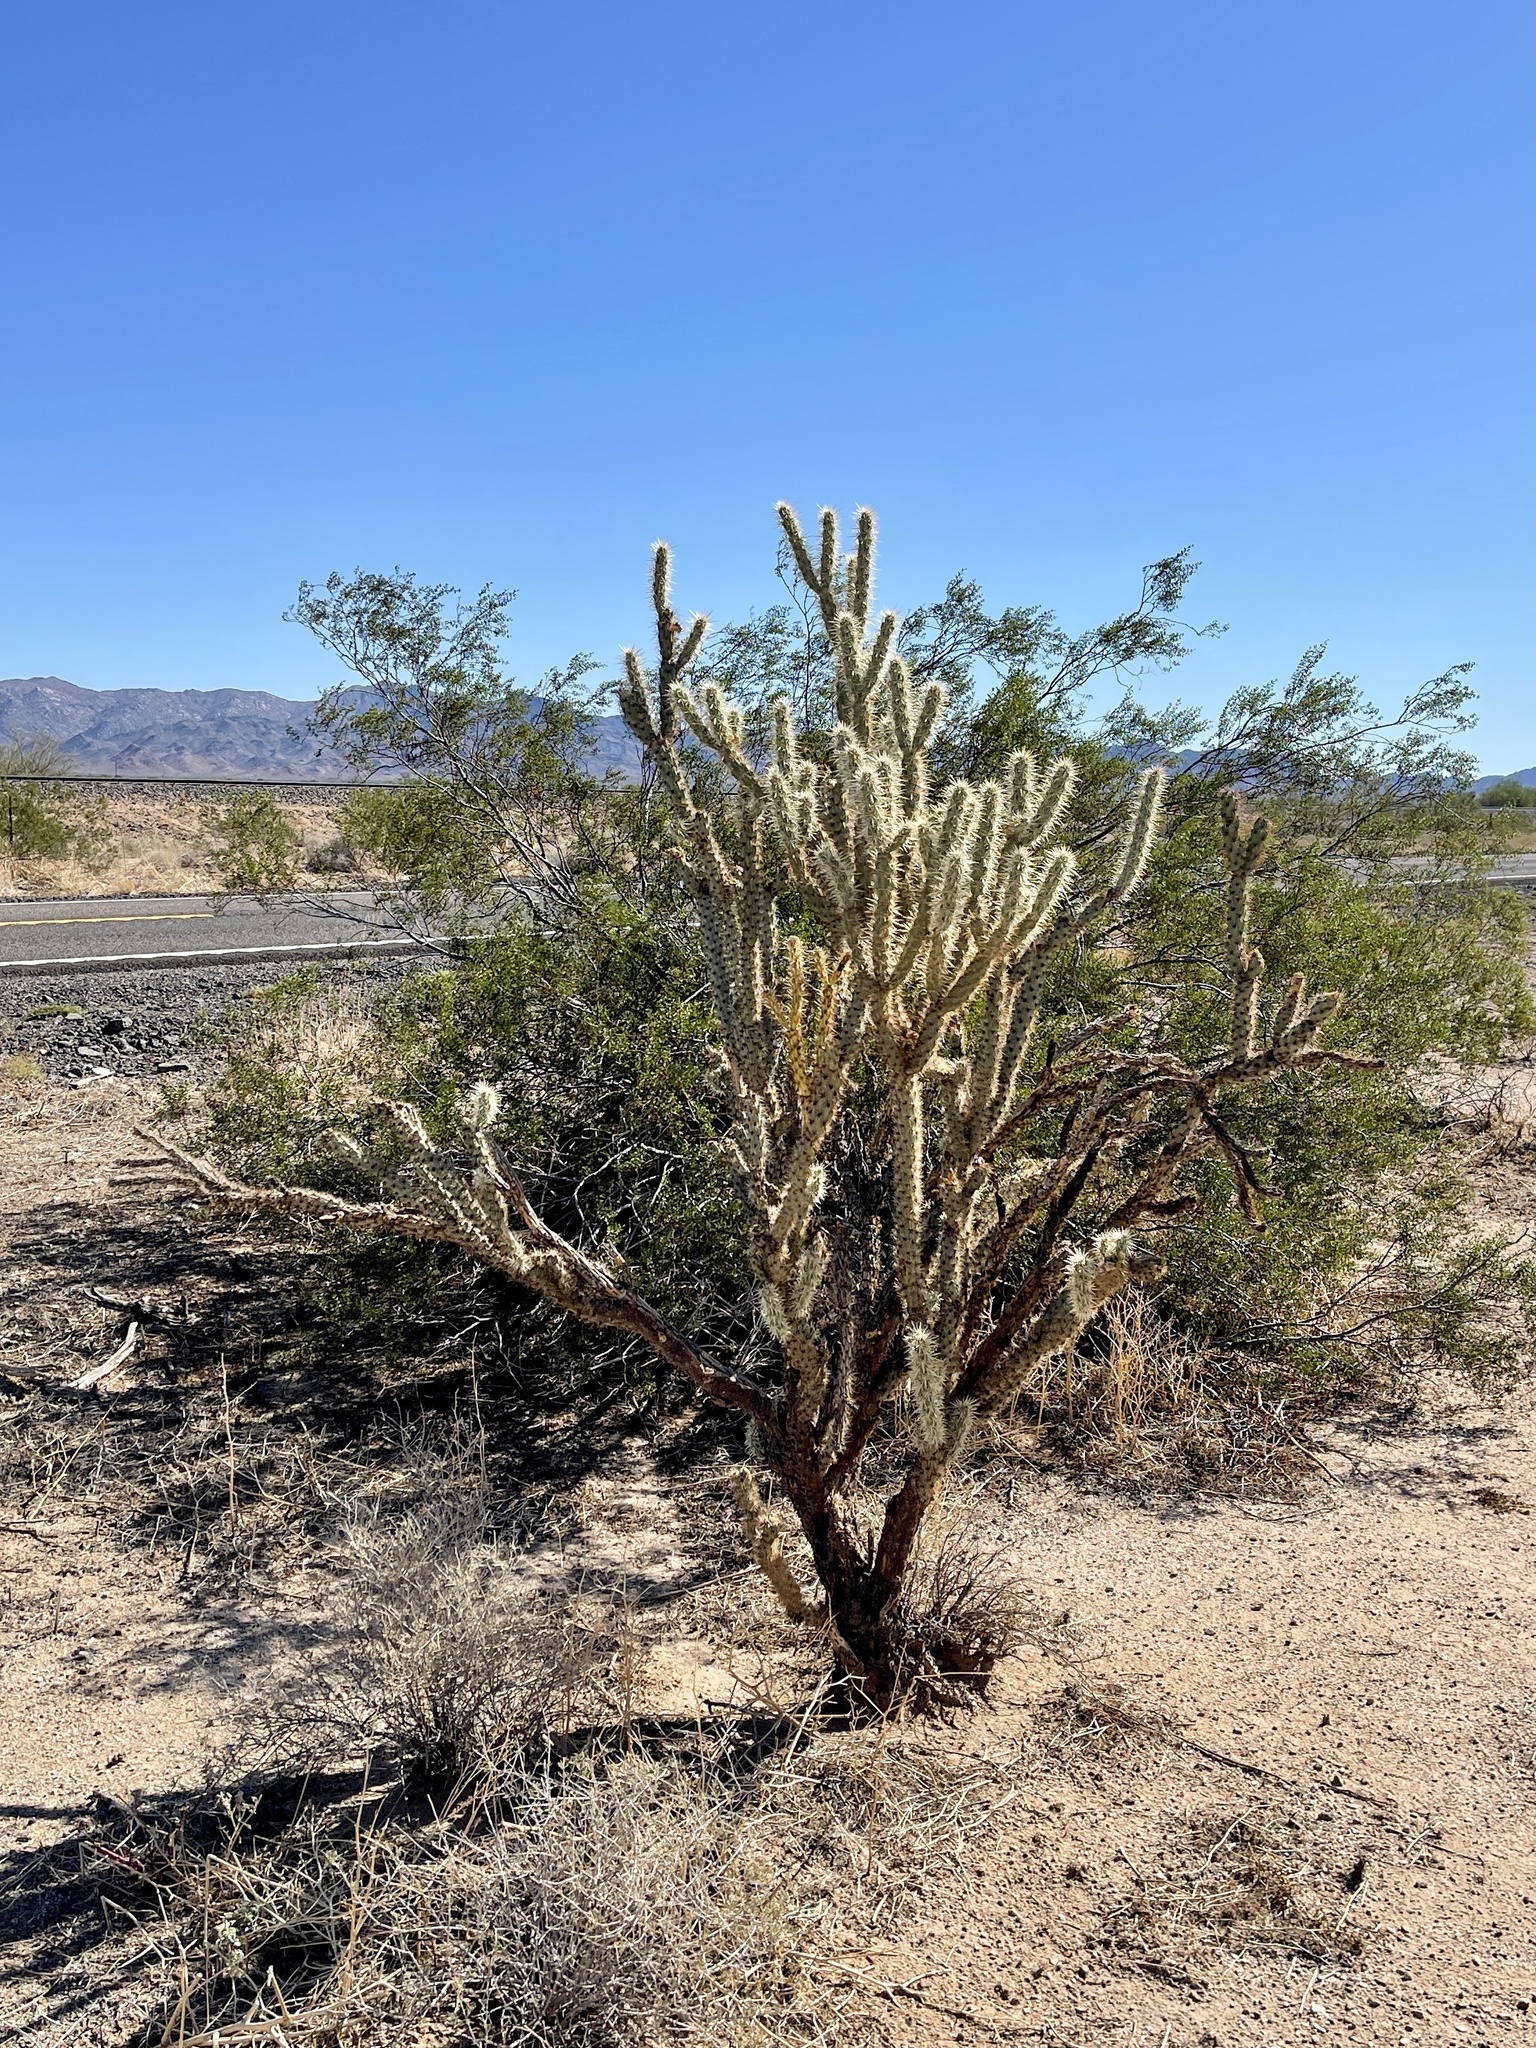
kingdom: Plantae
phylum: Tracheophyta
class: Magnoliopsida
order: Caryophyllales
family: Cactaceae
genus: Cylindropuntia
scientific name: Cylindropuntia acanthocarpa
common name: Buckhorn cholla
